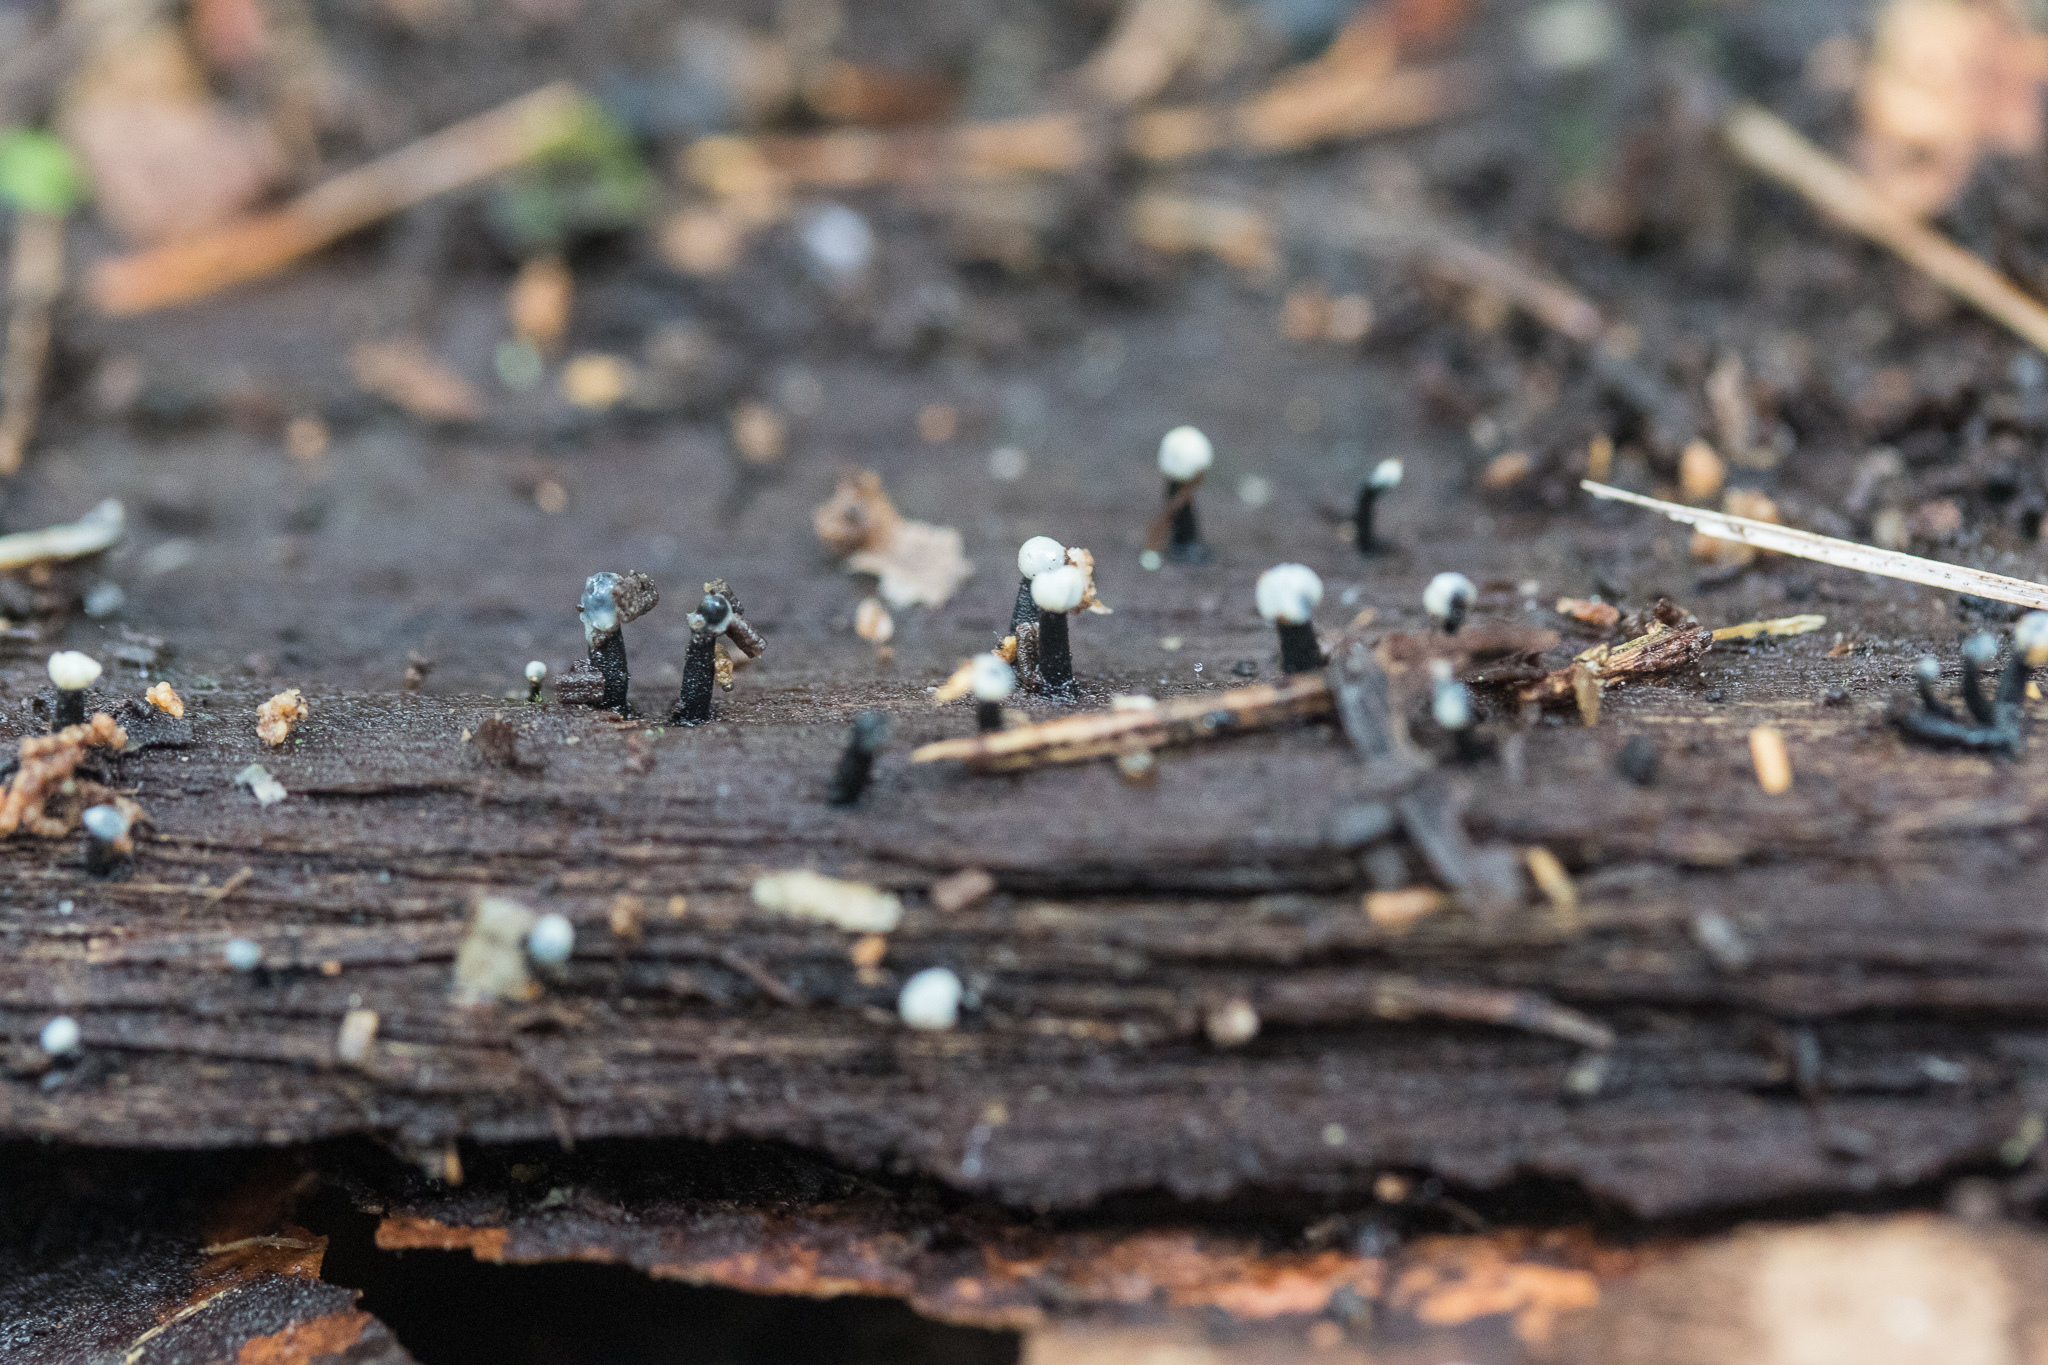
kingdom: Fungi
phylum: Ascomycota
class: Leotiomycetes
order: Helotiales
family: Bulgariaceae
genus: Holwaya
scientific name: Holwaya mucida
